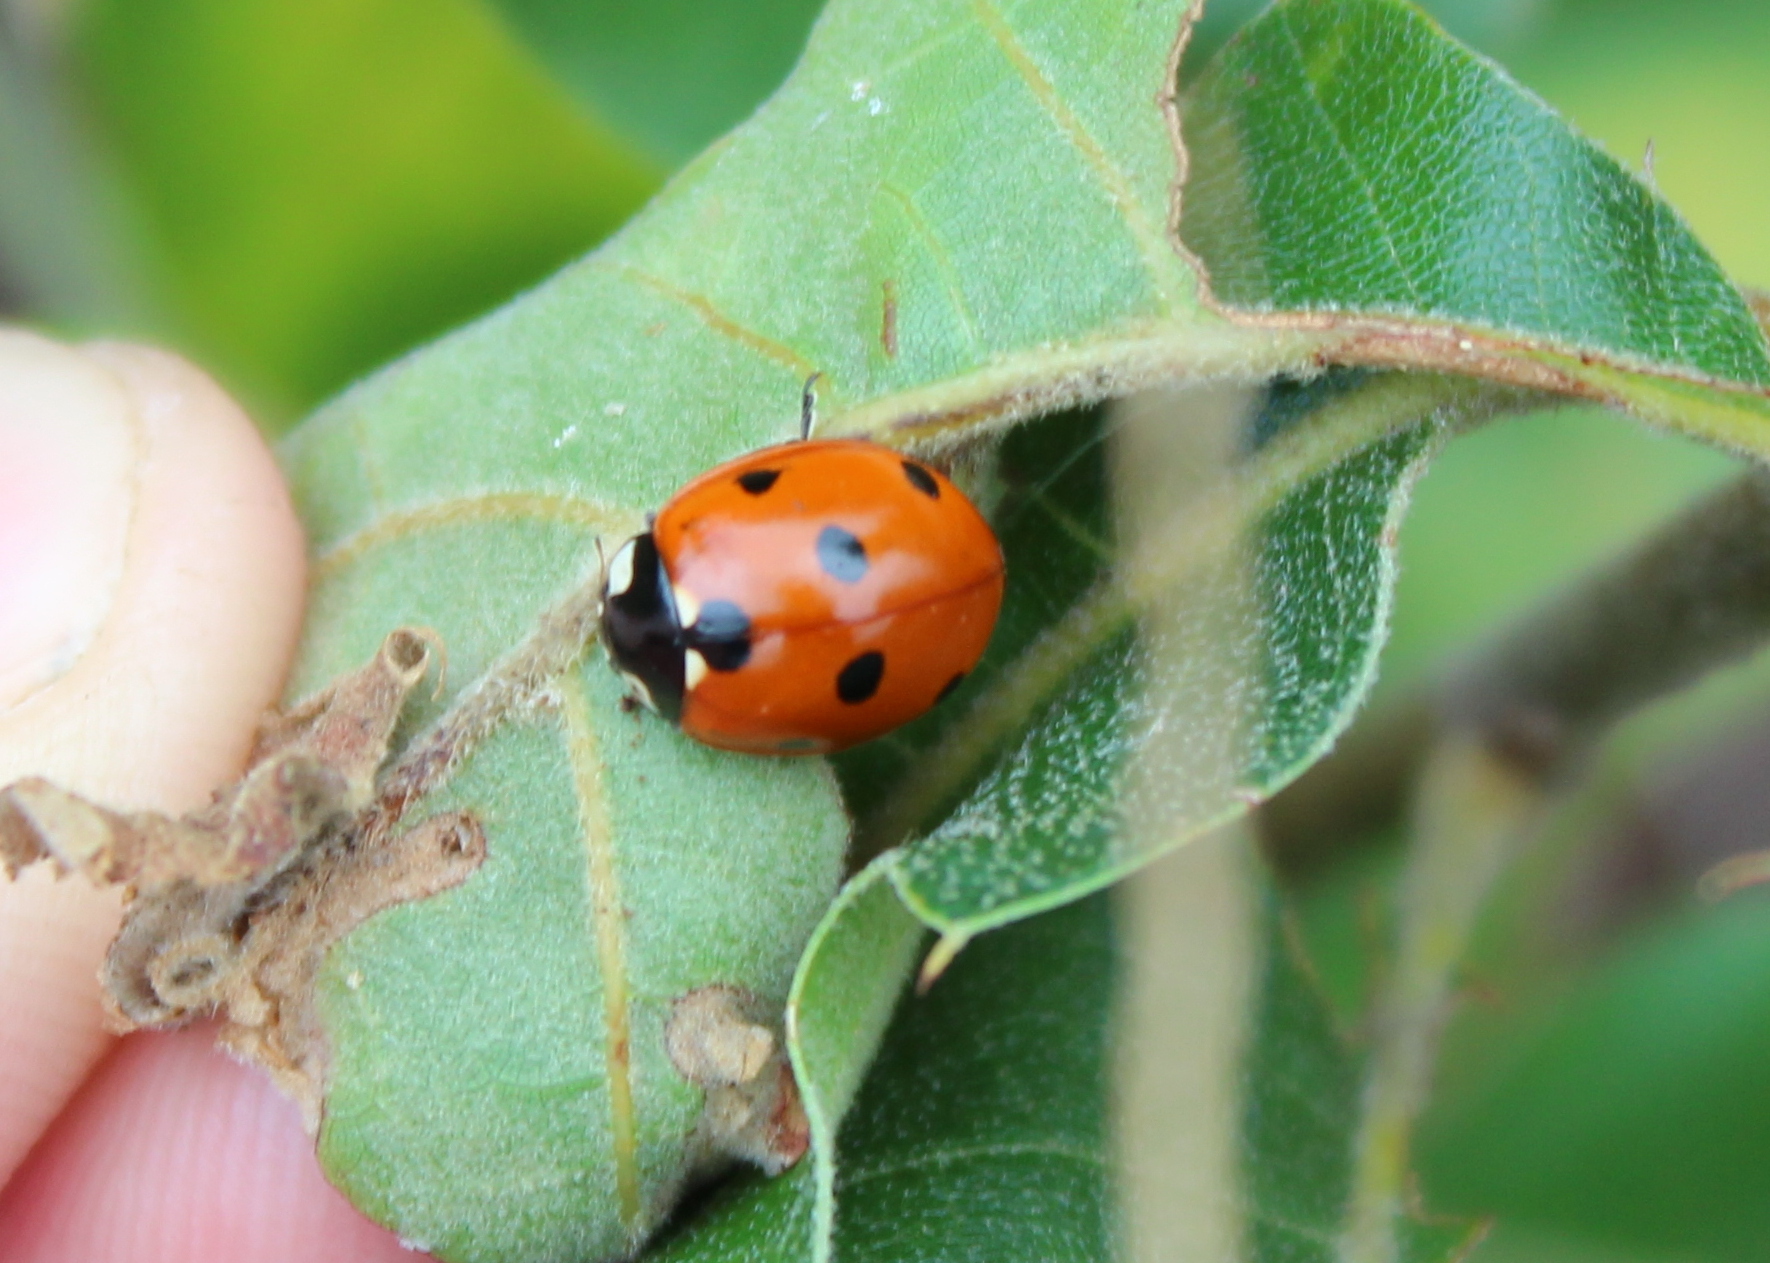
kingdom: Animalia
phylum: Arthropoda
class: Insecta
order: Coleoptera
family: Coccinellidae
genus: Coccinella
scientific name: Coccinella septempunctata
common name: Sevenspotted lady beetle
